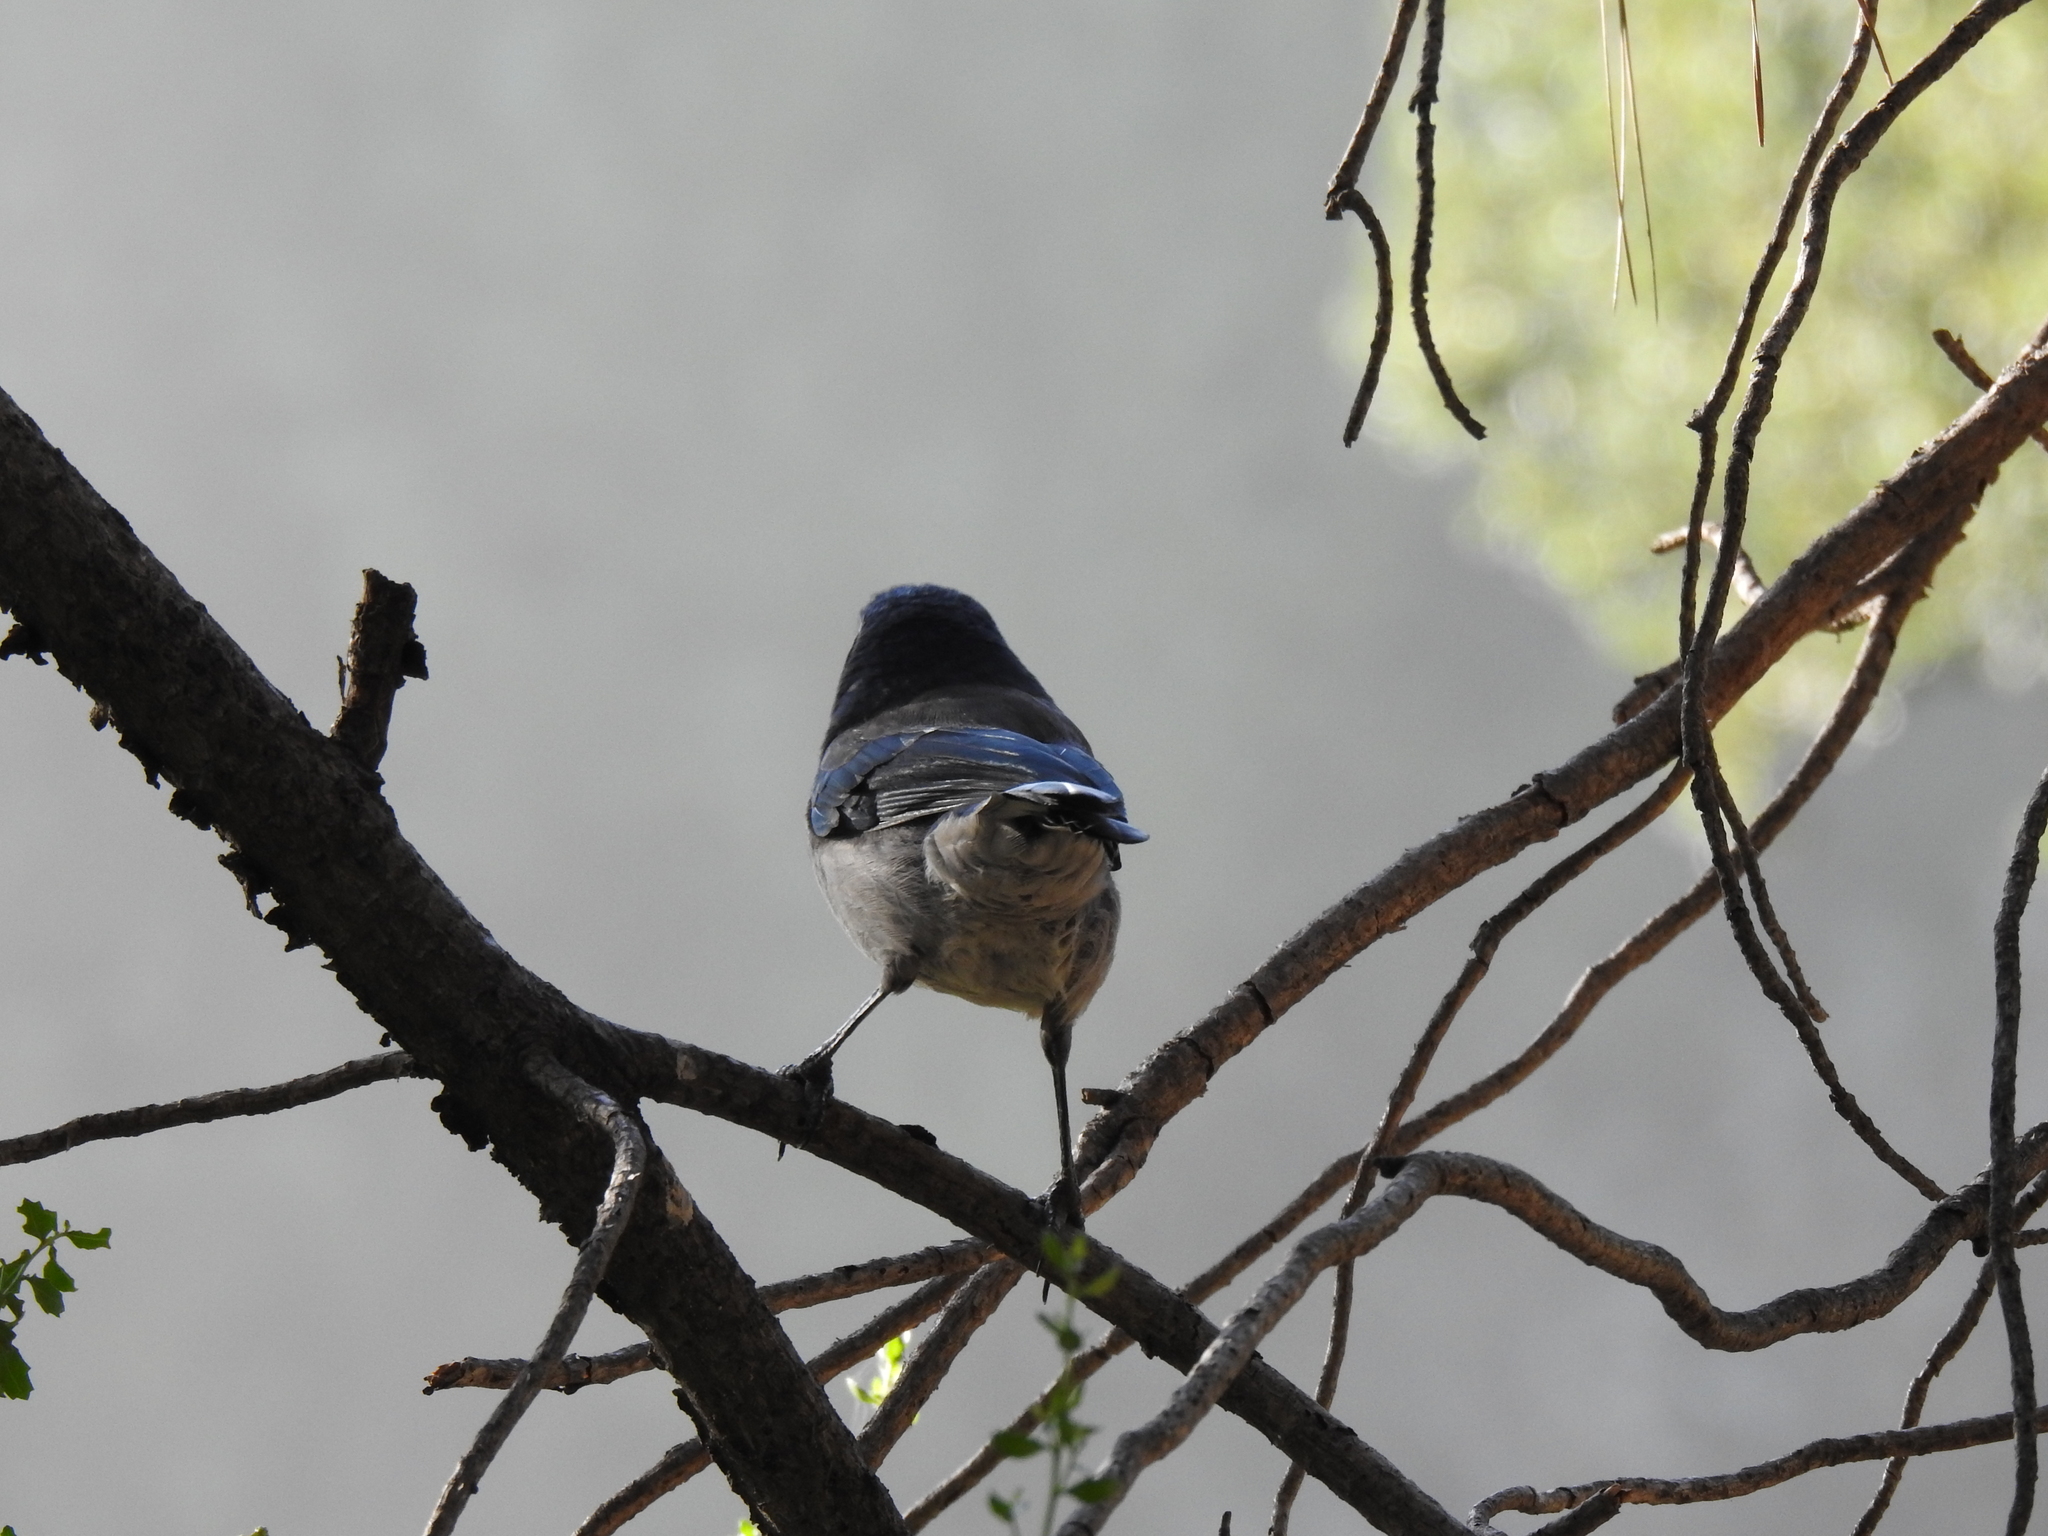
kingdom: Animalia
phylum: Chordata
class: Aves
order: Passeriformes
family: Corvidae
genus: Aphelocoma
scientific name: Aphelocoma californica
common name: California scrub-jay
